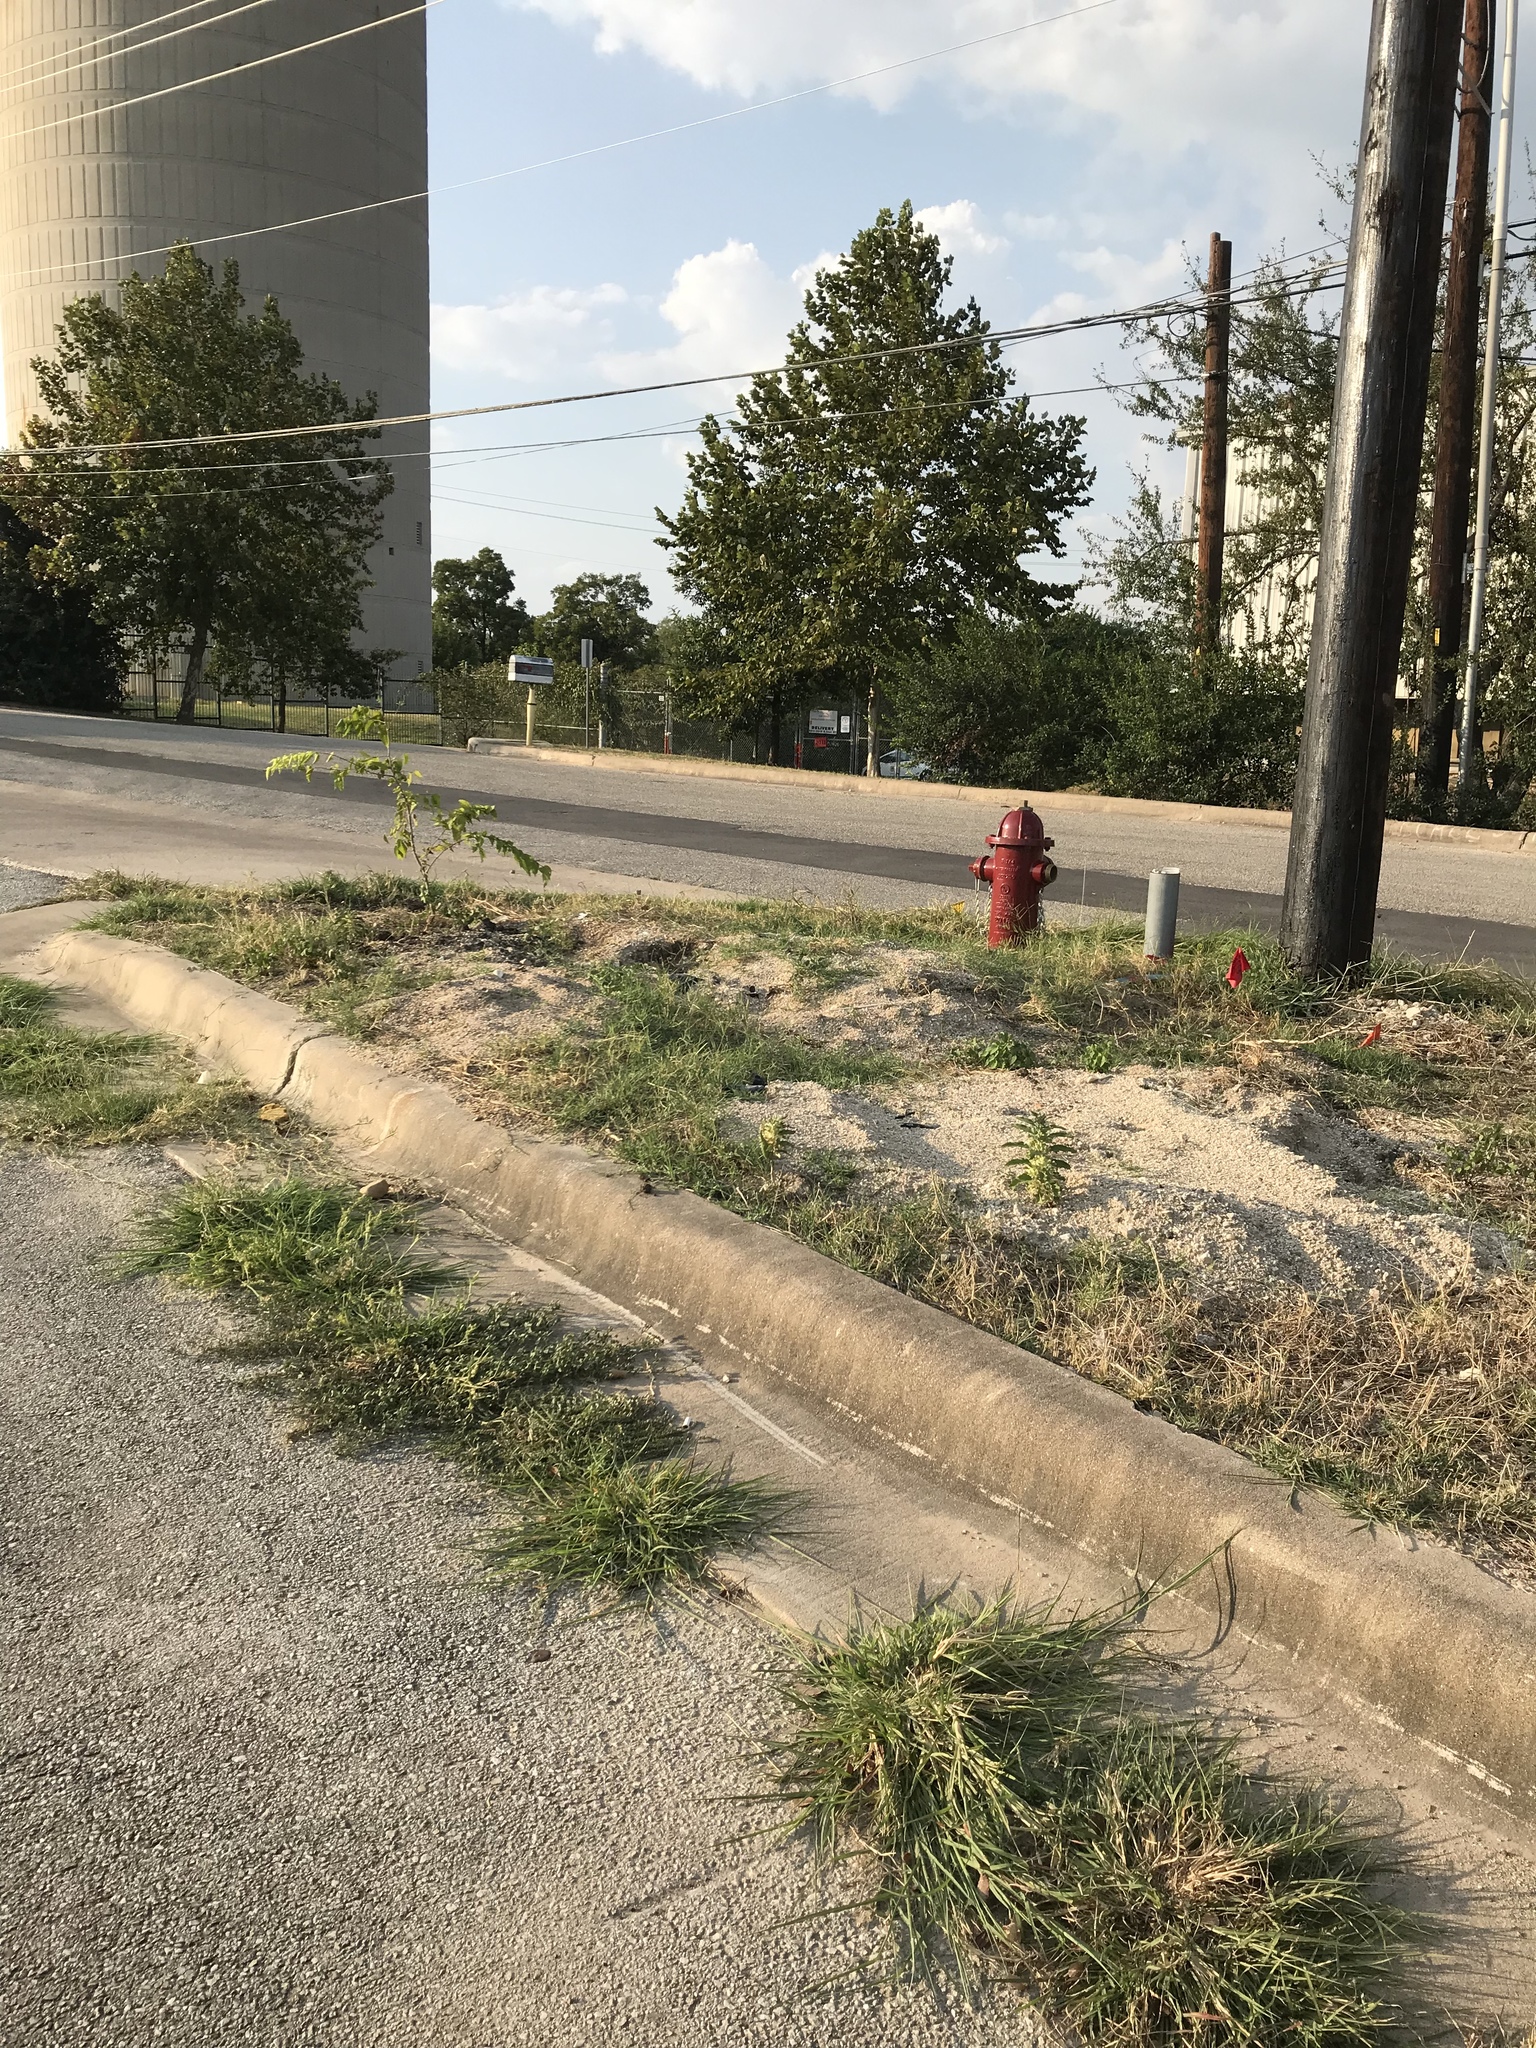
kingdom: Plantae
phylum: Tracheophyta
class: Magnoliopsida
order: Gentianales
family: Apocynaceae
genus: Asclepias
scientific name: Asclepias oenotheroides
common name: Zizotes milkweed
